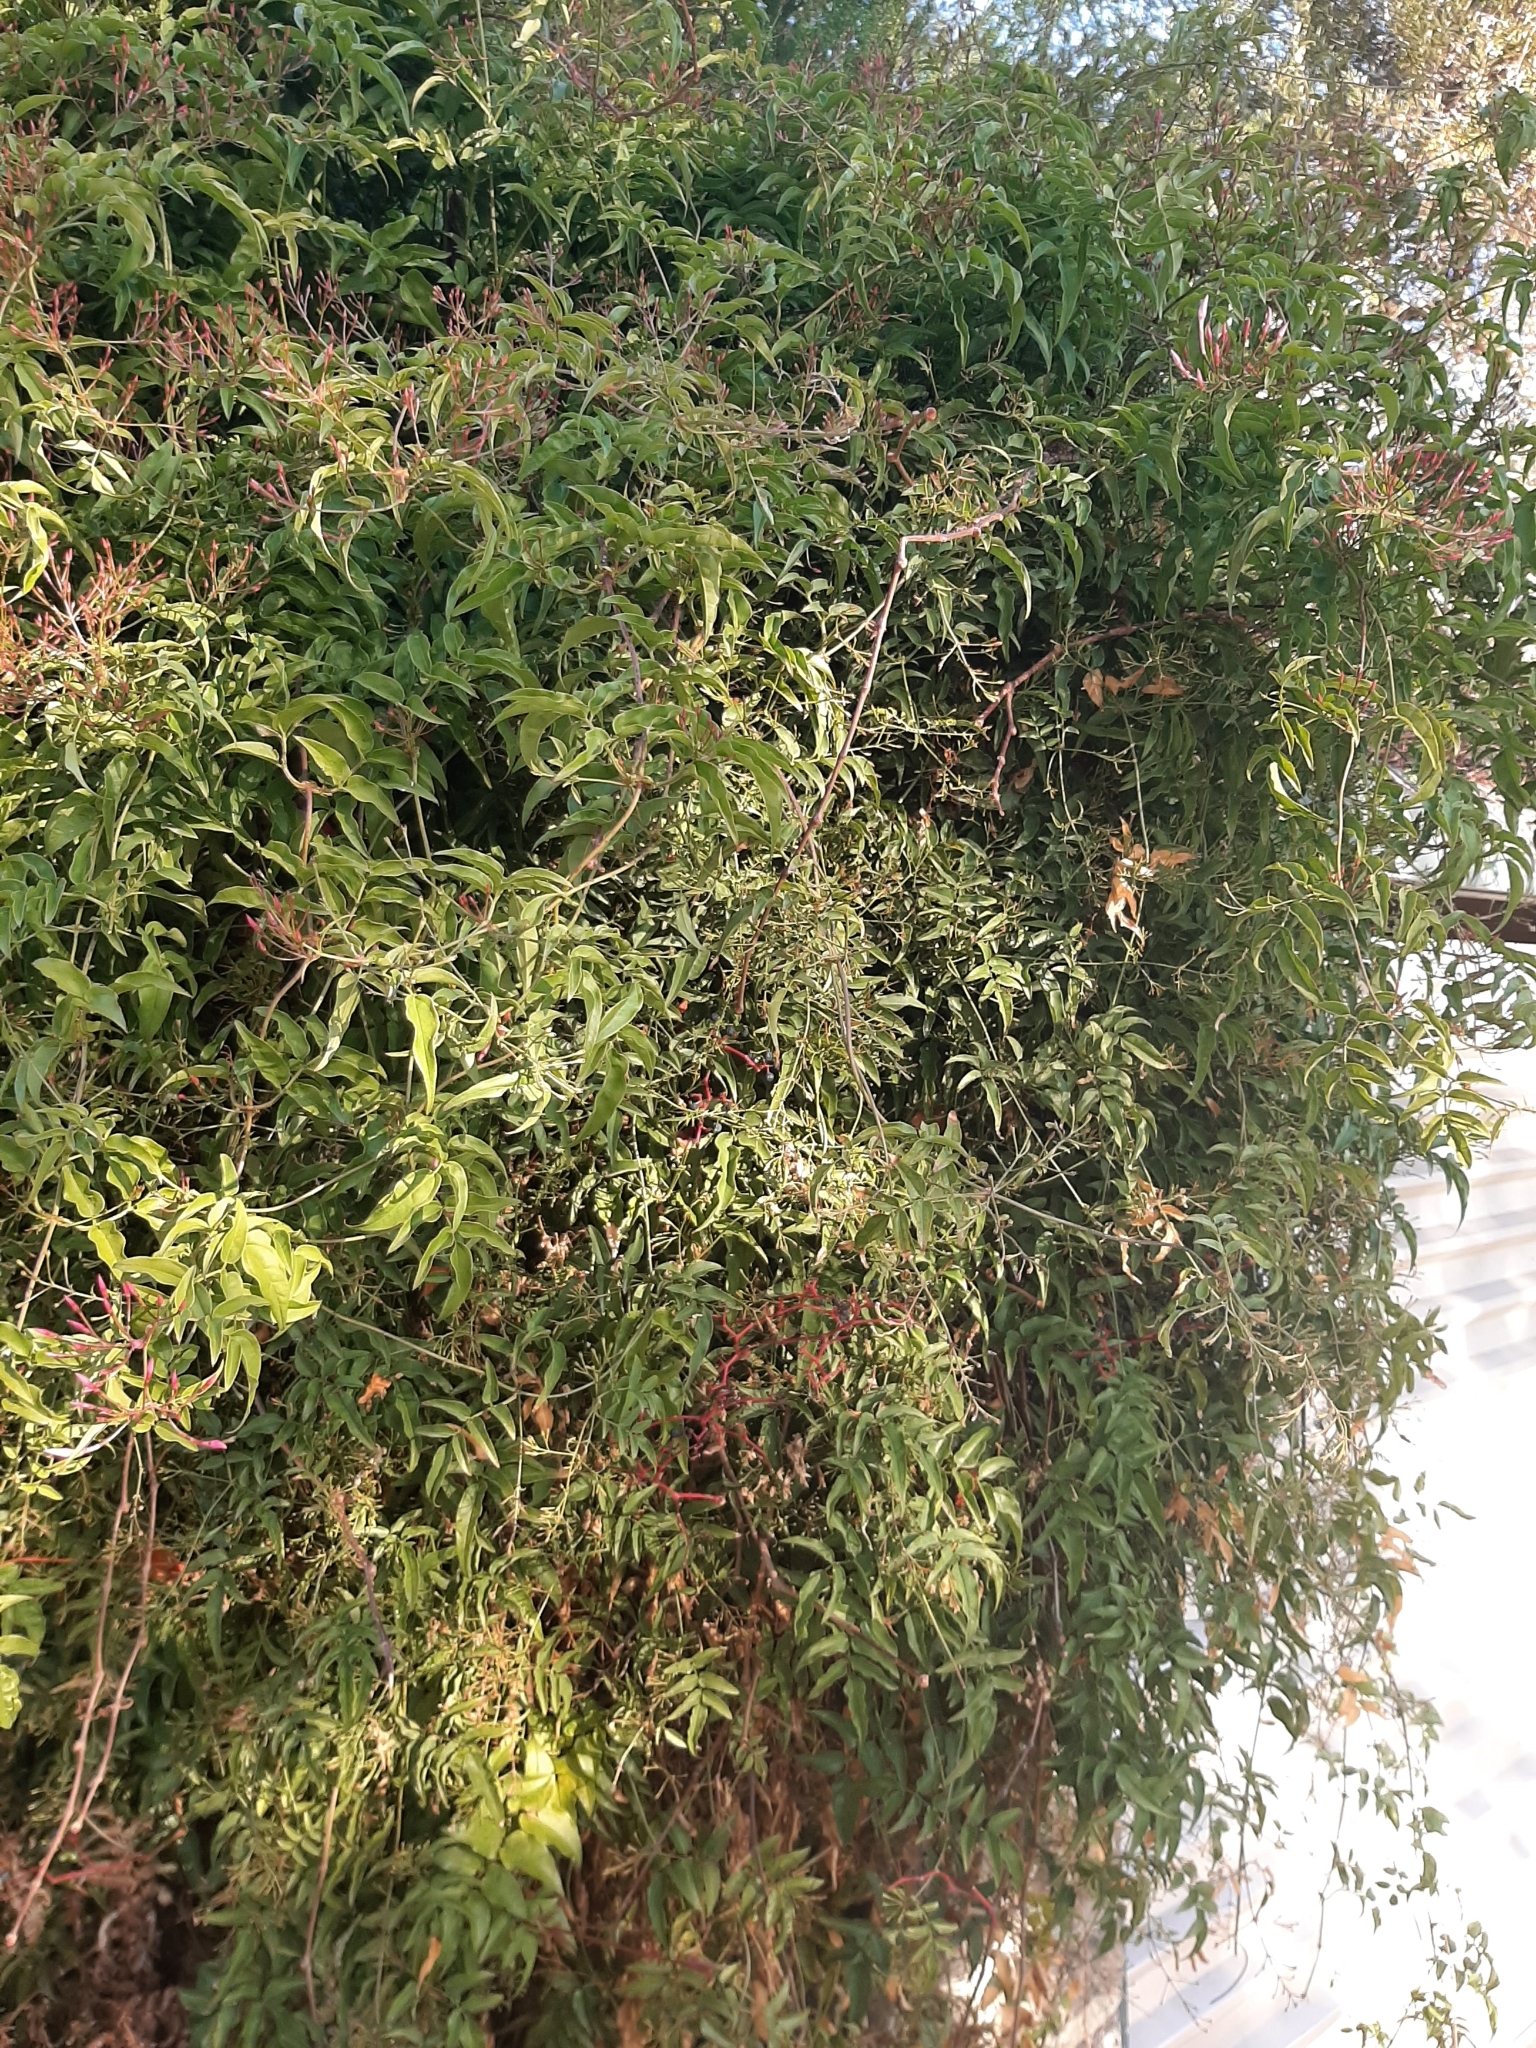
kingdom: Plantae
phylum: Tracheophyta
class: Magnoliopsida
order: Lamiales
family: Oleaceae
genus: Jasminum
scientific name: Jasminum polyanthum
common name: Pink jasmine
